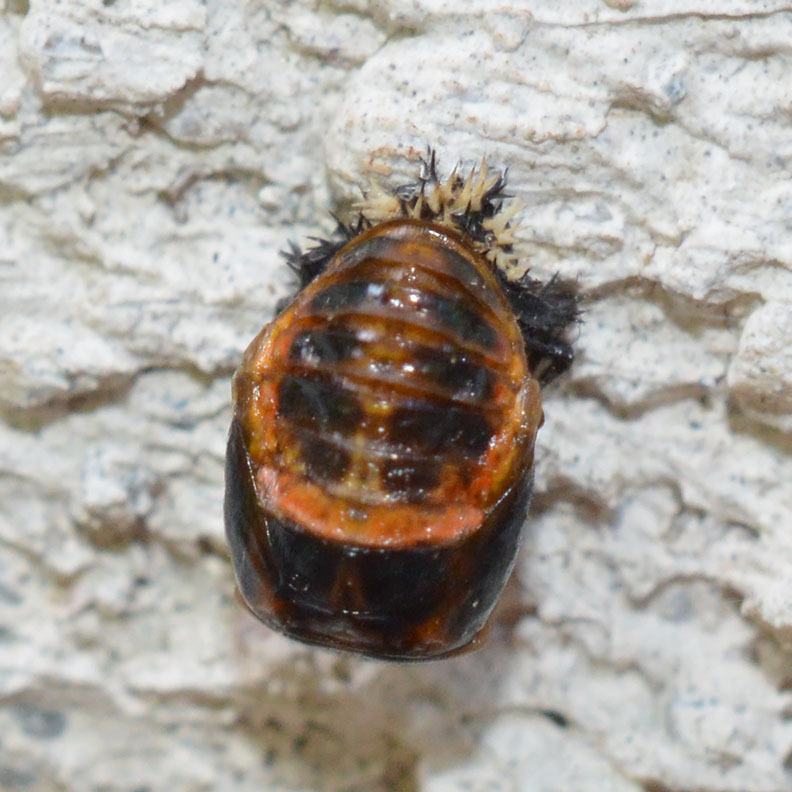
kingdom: Animalia
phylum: Arthropoda
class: Insecta
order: Coleoptera
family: Coccinellidae
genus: Harmonia
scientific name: Harmonia axyridis
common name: Harlequin ladybird
